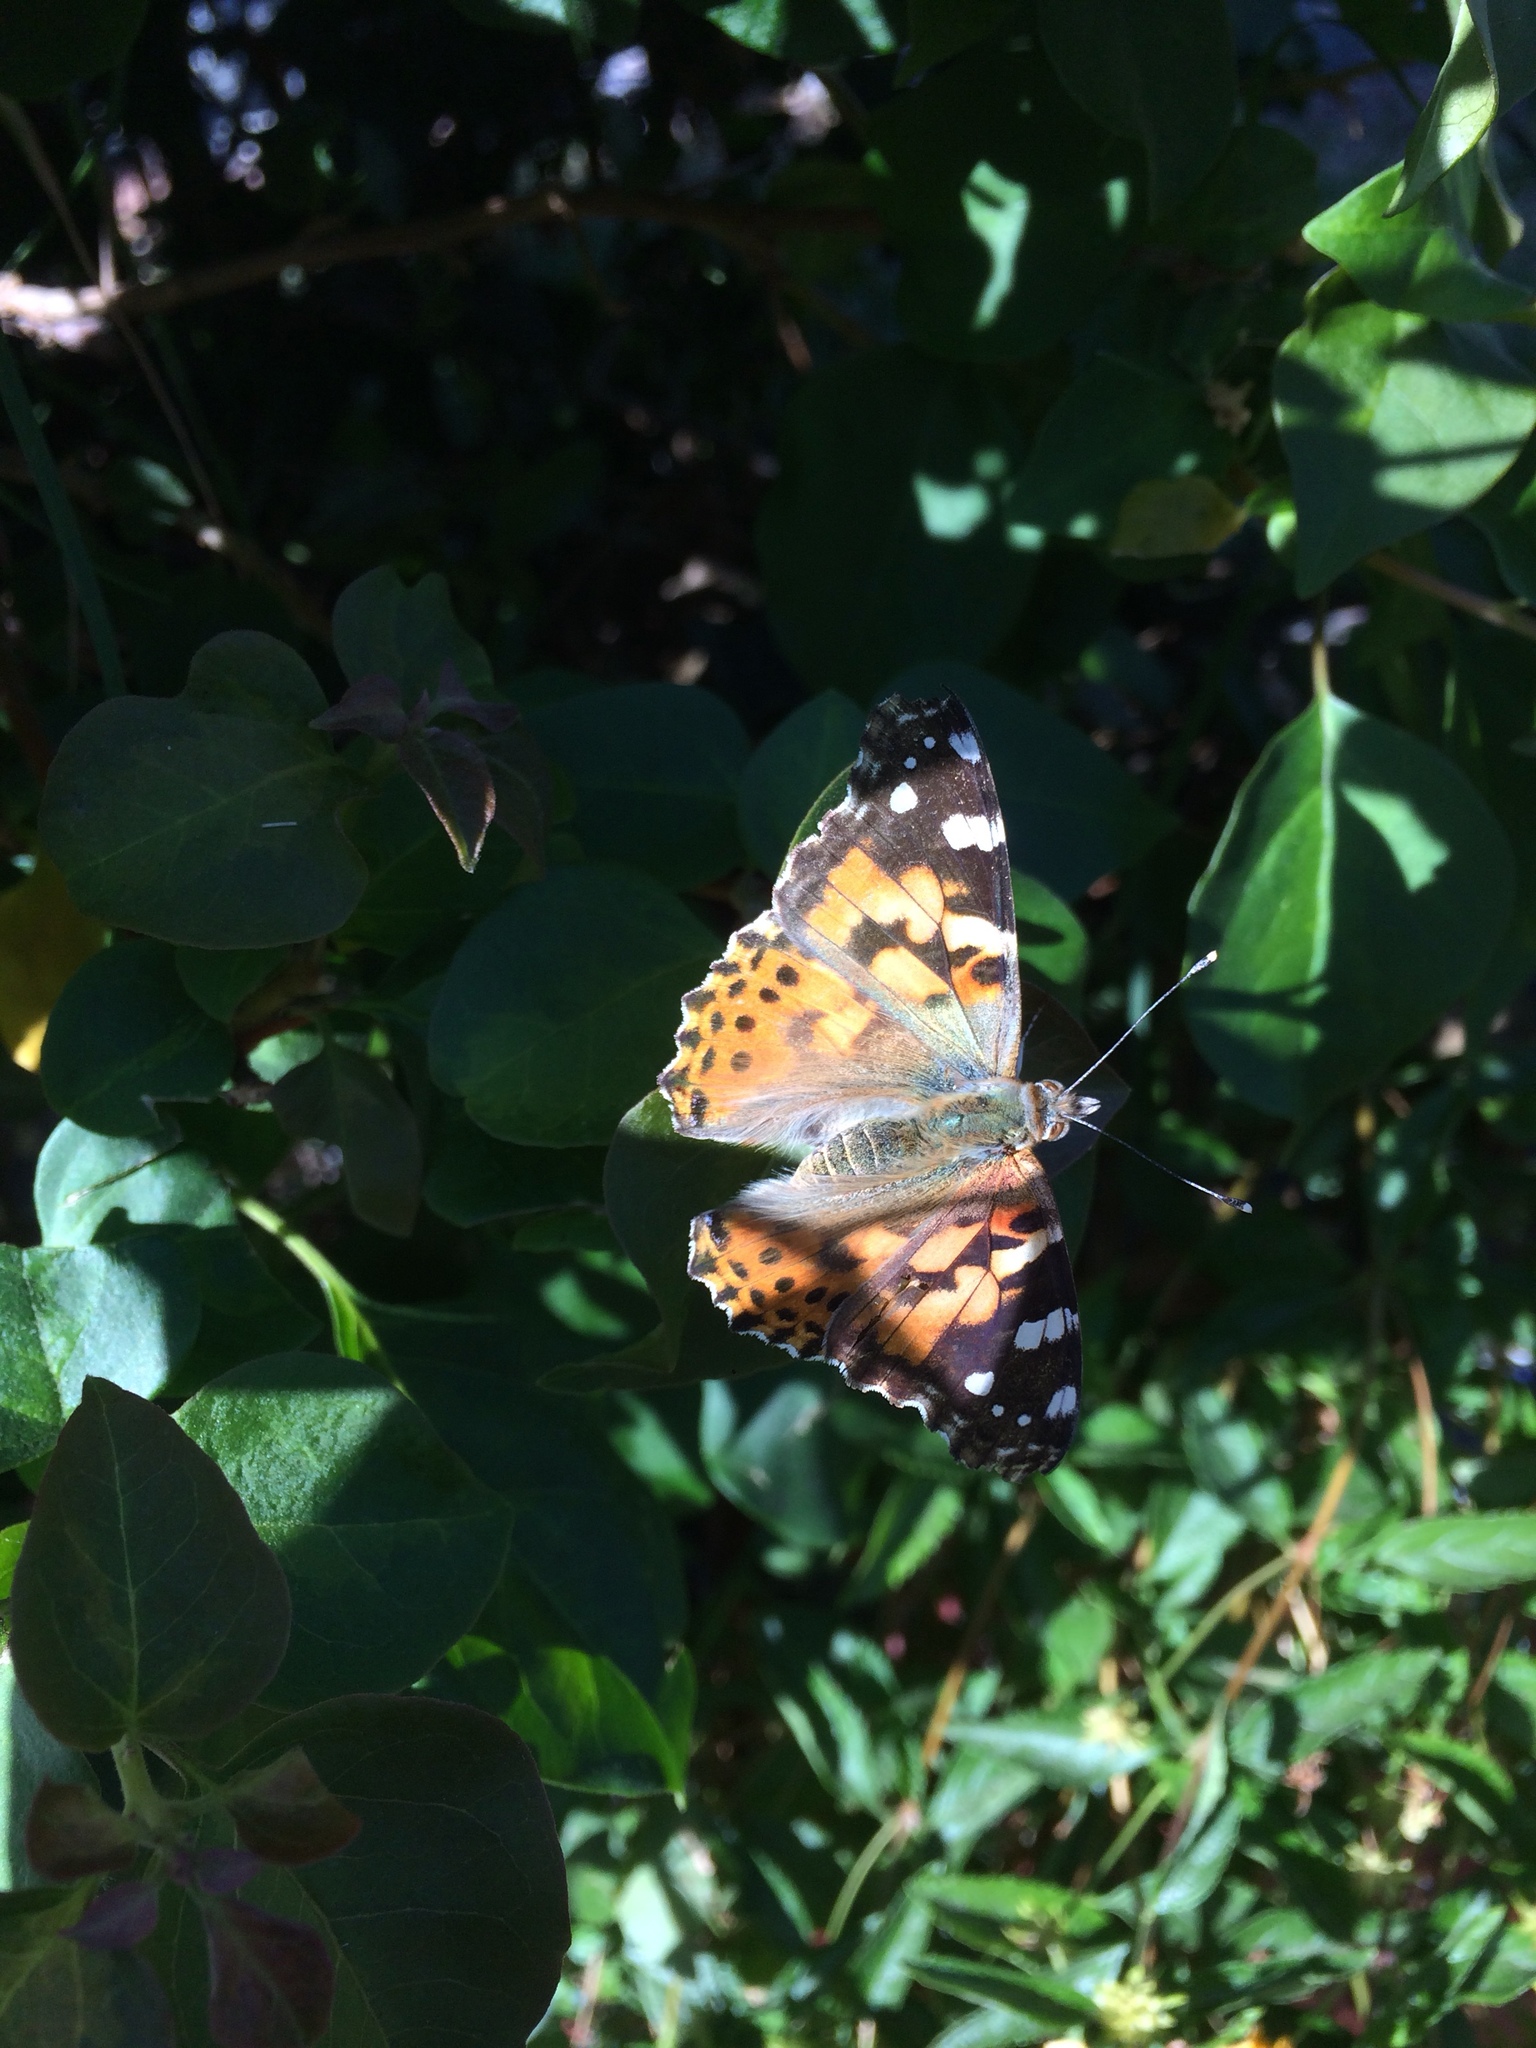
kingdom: Animalia
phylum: Arthropoda
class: Insecta
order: Lepidoptera
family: Nymphalidae
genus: Vanessa
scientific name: Vanessa cardui
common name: Painted lady
